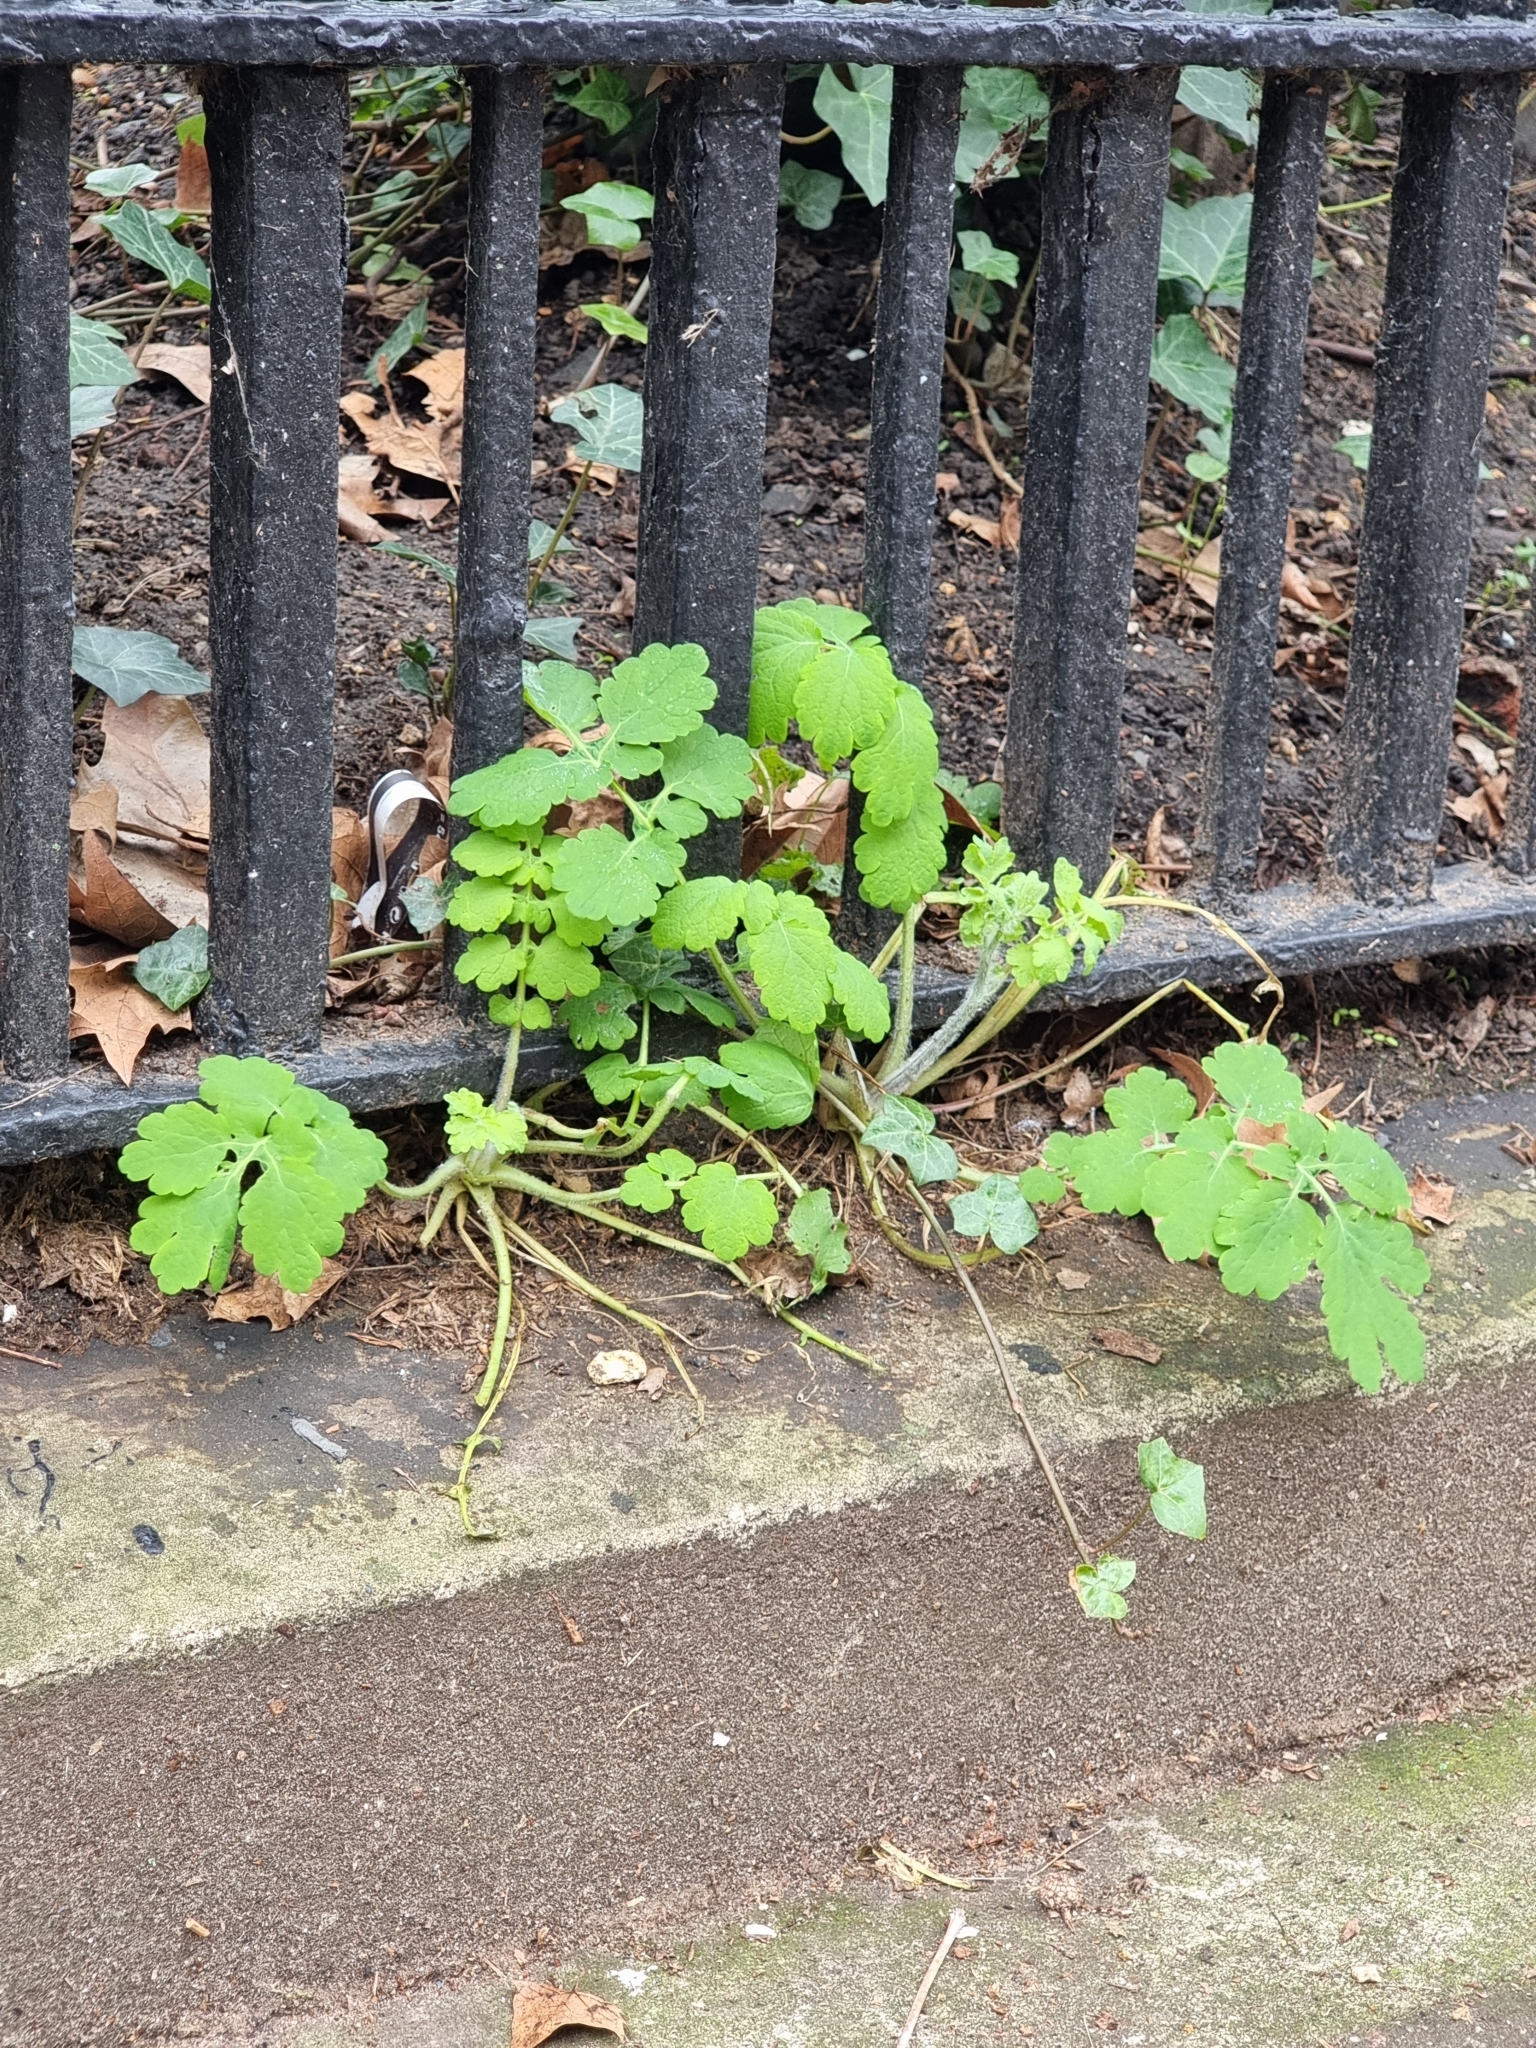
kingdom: Plantae
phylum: Tracheophyta
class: Magnoliopsida
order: Ranunculales
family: Papaveraceae
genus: Chelidonium
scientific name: Chelidonium majus
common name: Greater celandine
